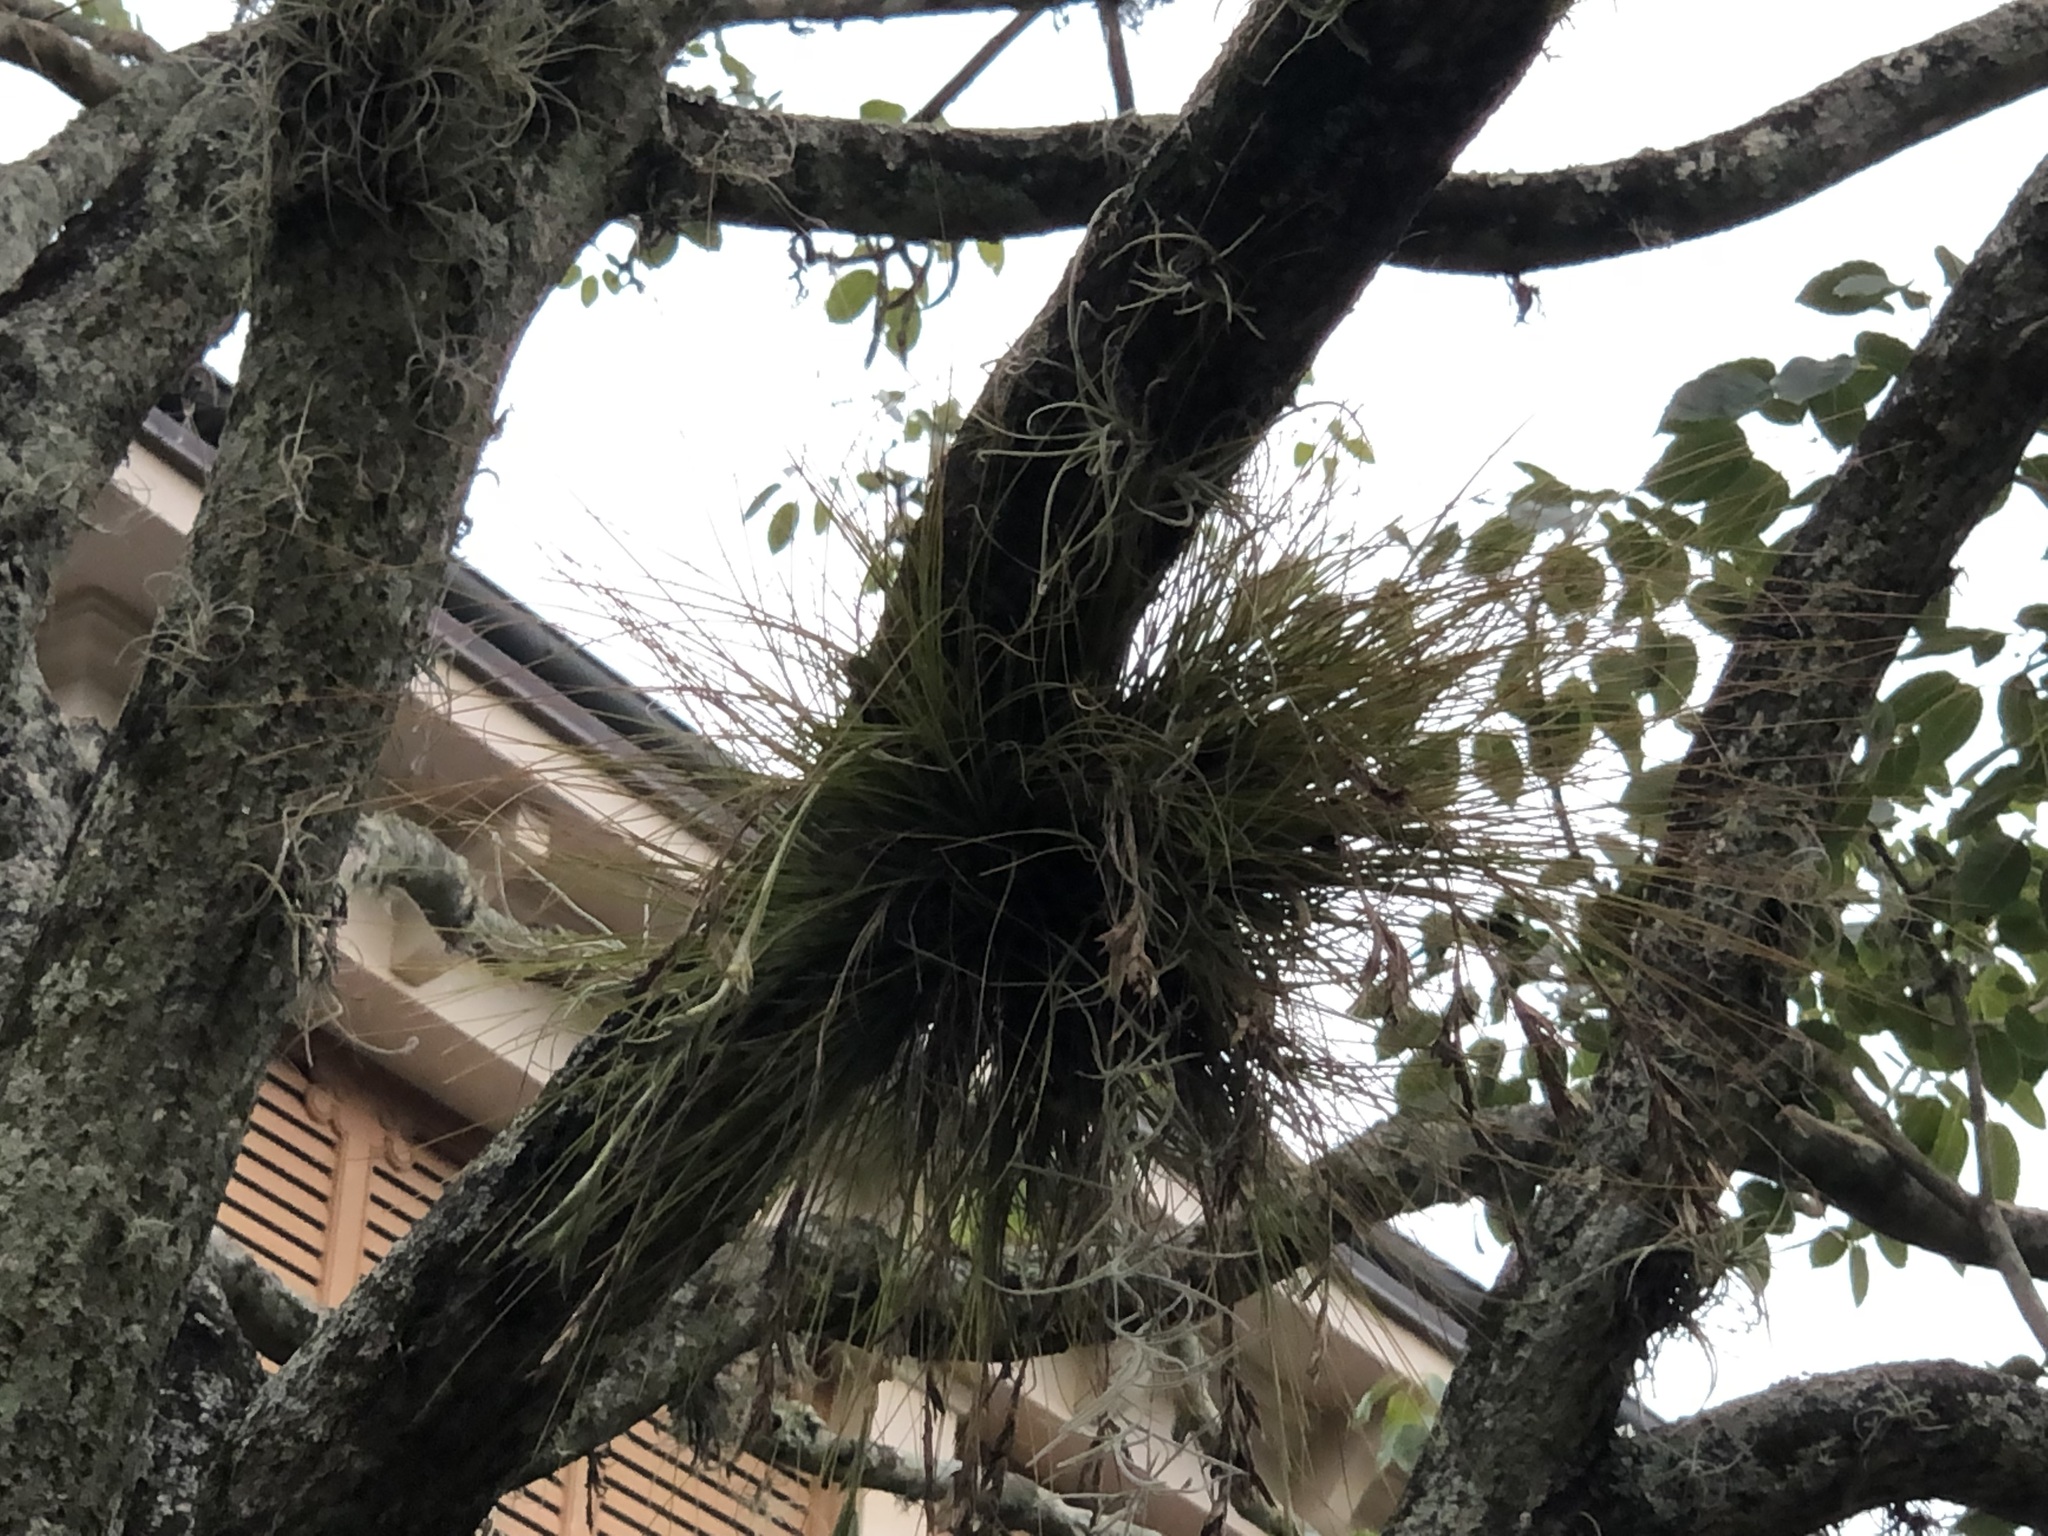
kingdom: Plantae
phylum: Tracheophyta
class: Liliopsida
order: Poales
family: Bromeliaceae
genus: Tillandsia
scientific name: Tillandsia setacea
